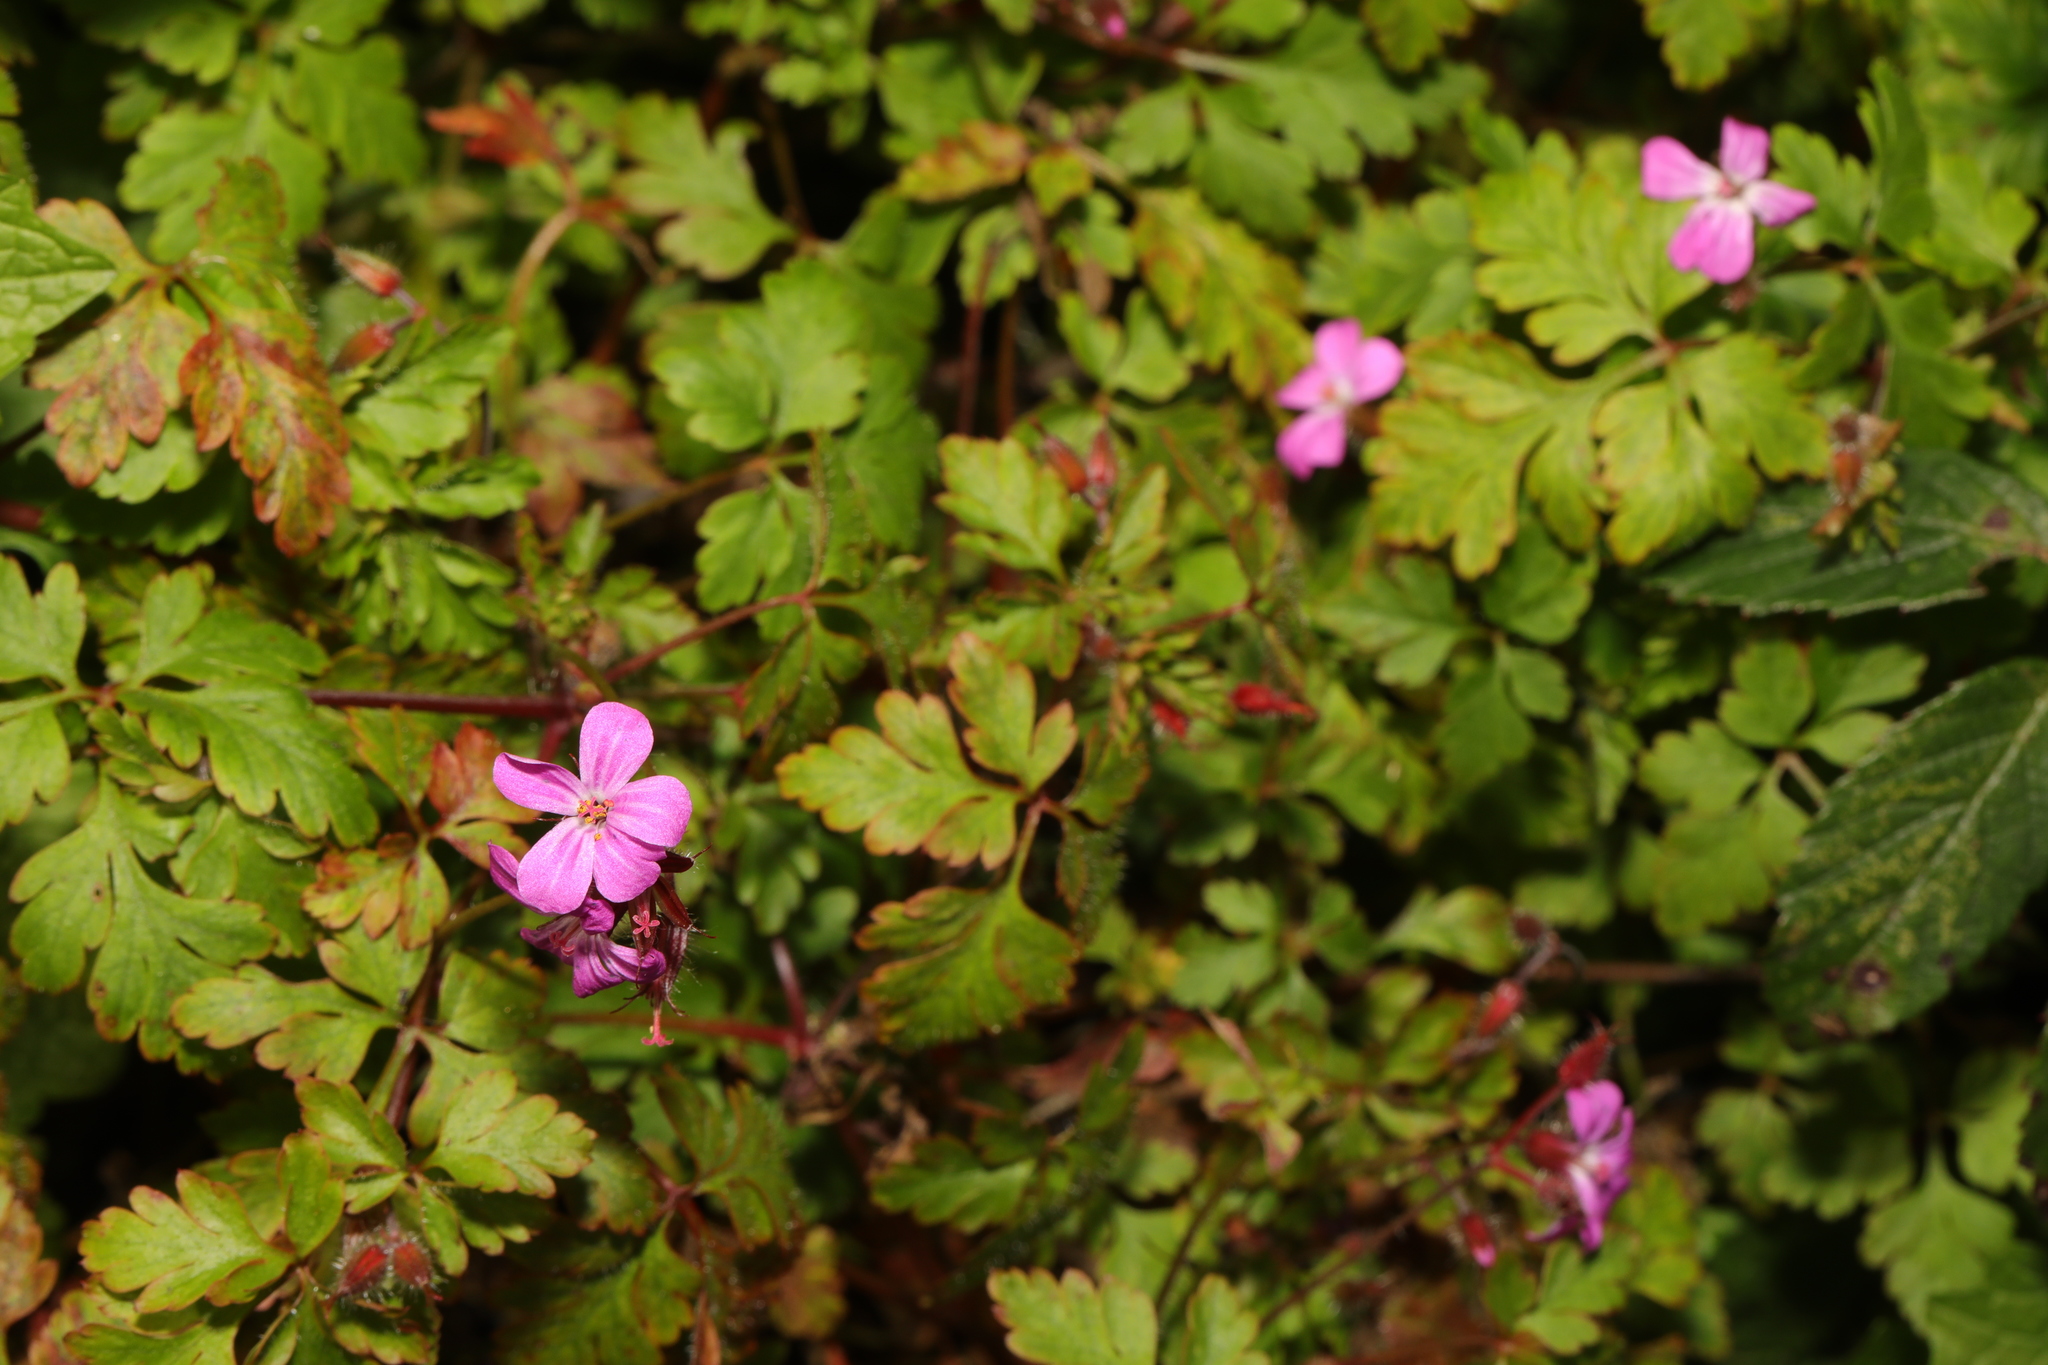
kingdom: Plantae
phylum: Tracheophyta
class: Magnoliopsida
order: Geraniales
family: Geraniaceae
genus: Geranium
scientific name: Geranium robertianum
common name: Herb-robert
